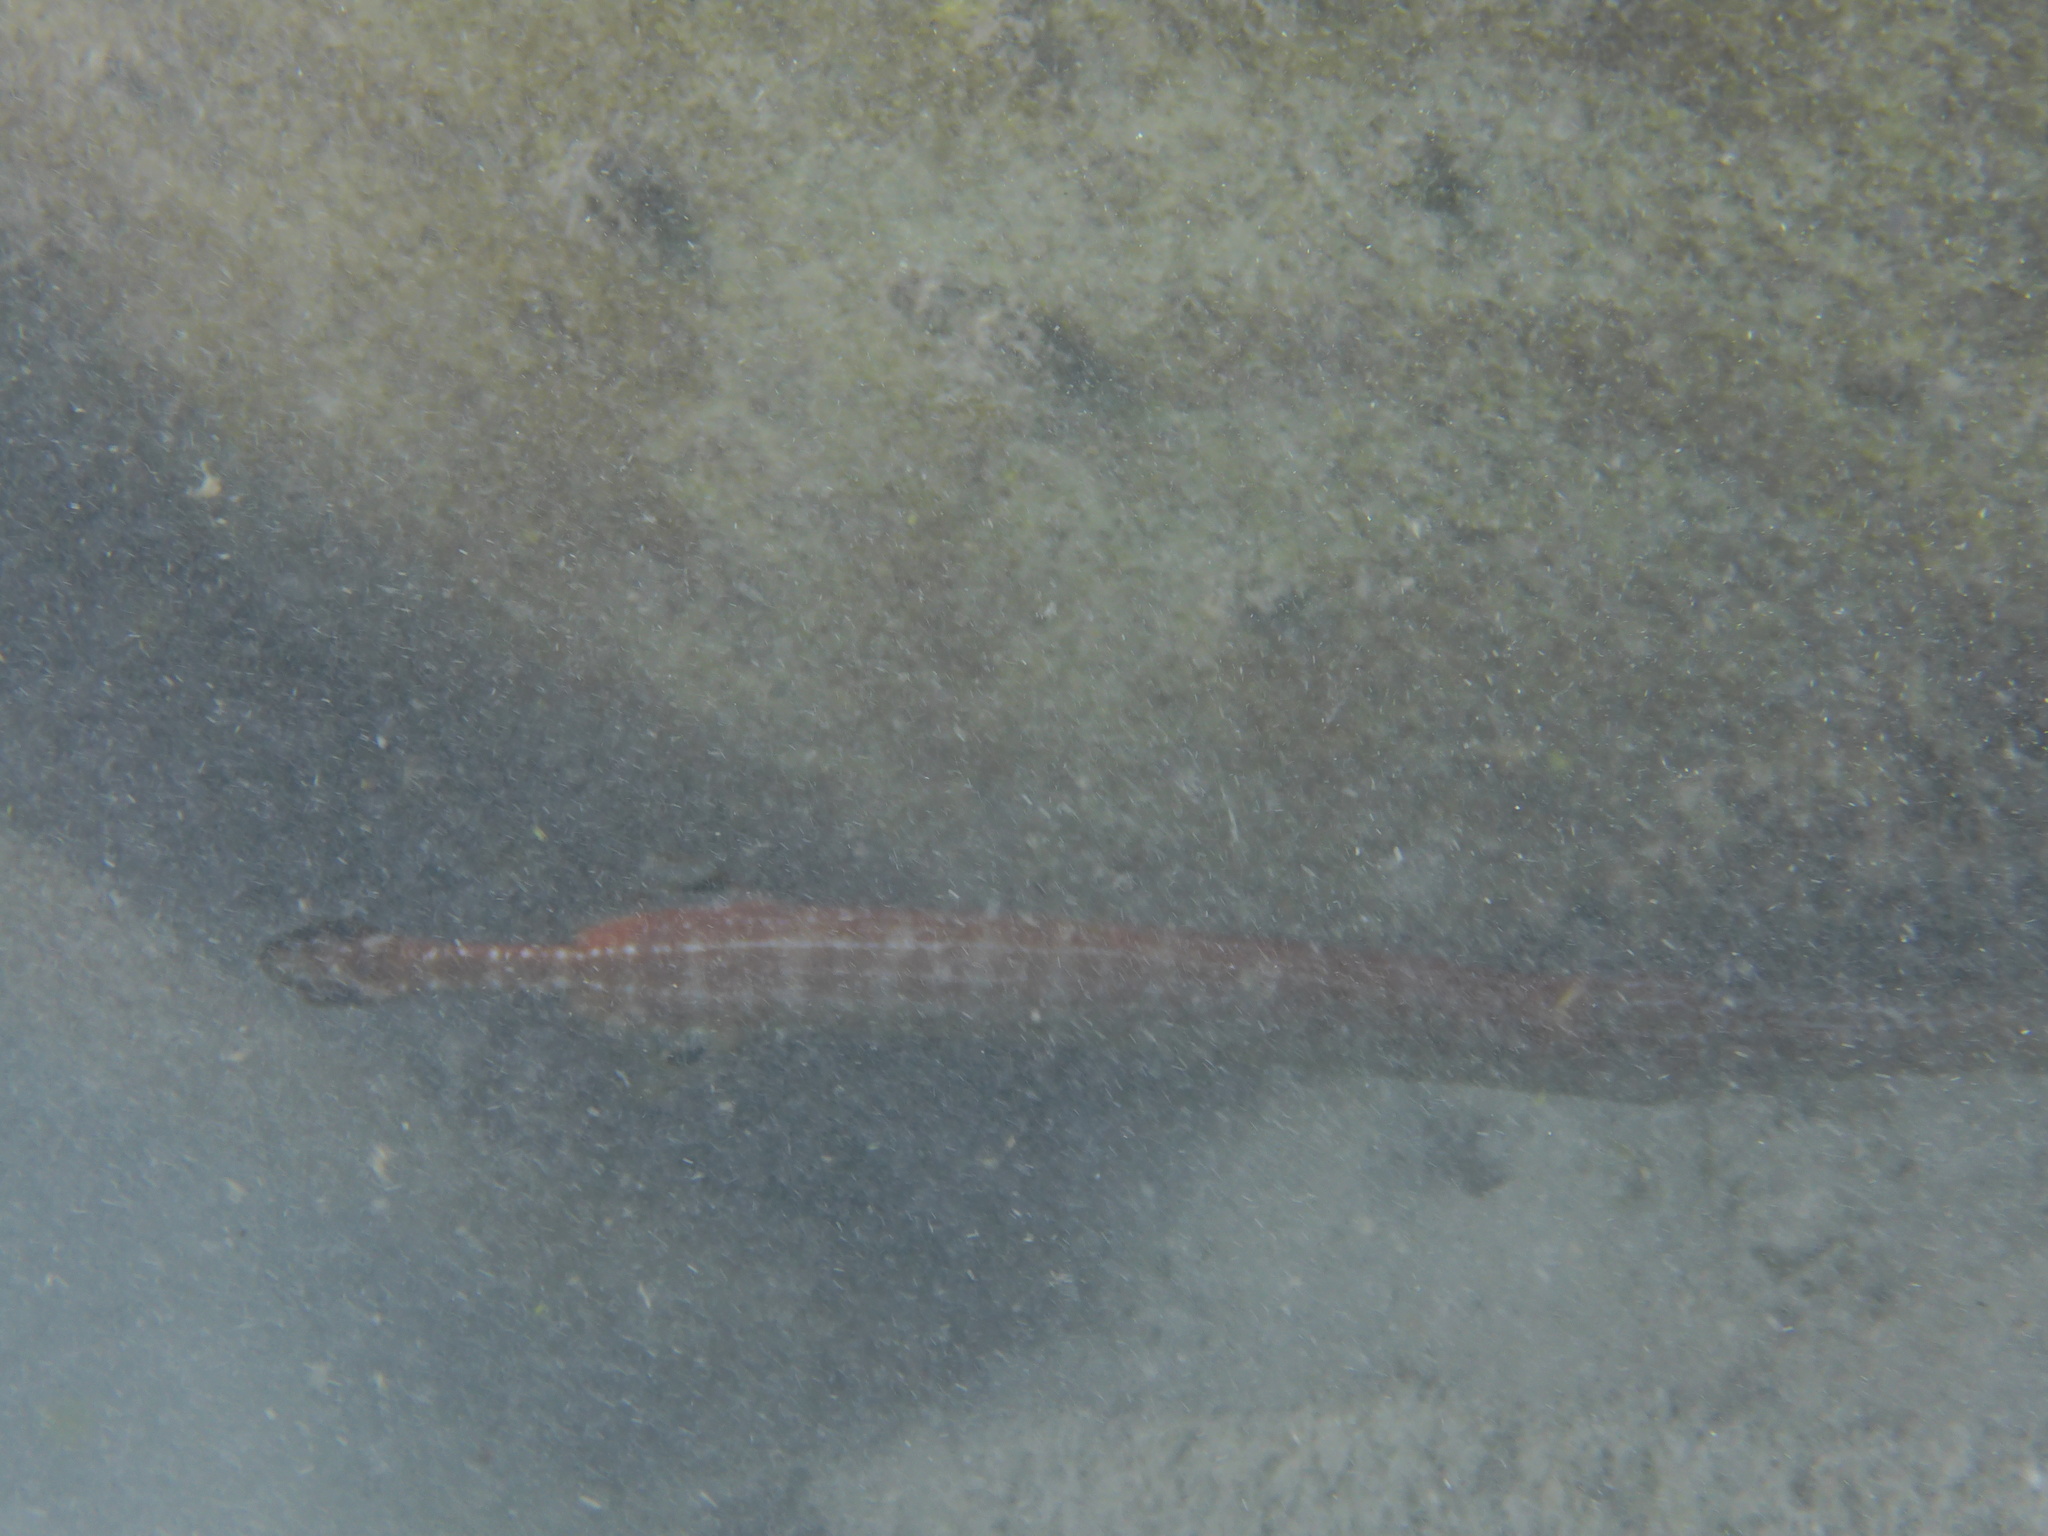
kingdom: Animalia
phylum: Chordata
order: Syngnathiformes
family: Aulostomidae
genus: Aulostomus
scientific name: Aulostomus maculatus
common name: West atlantic trumpetfish
